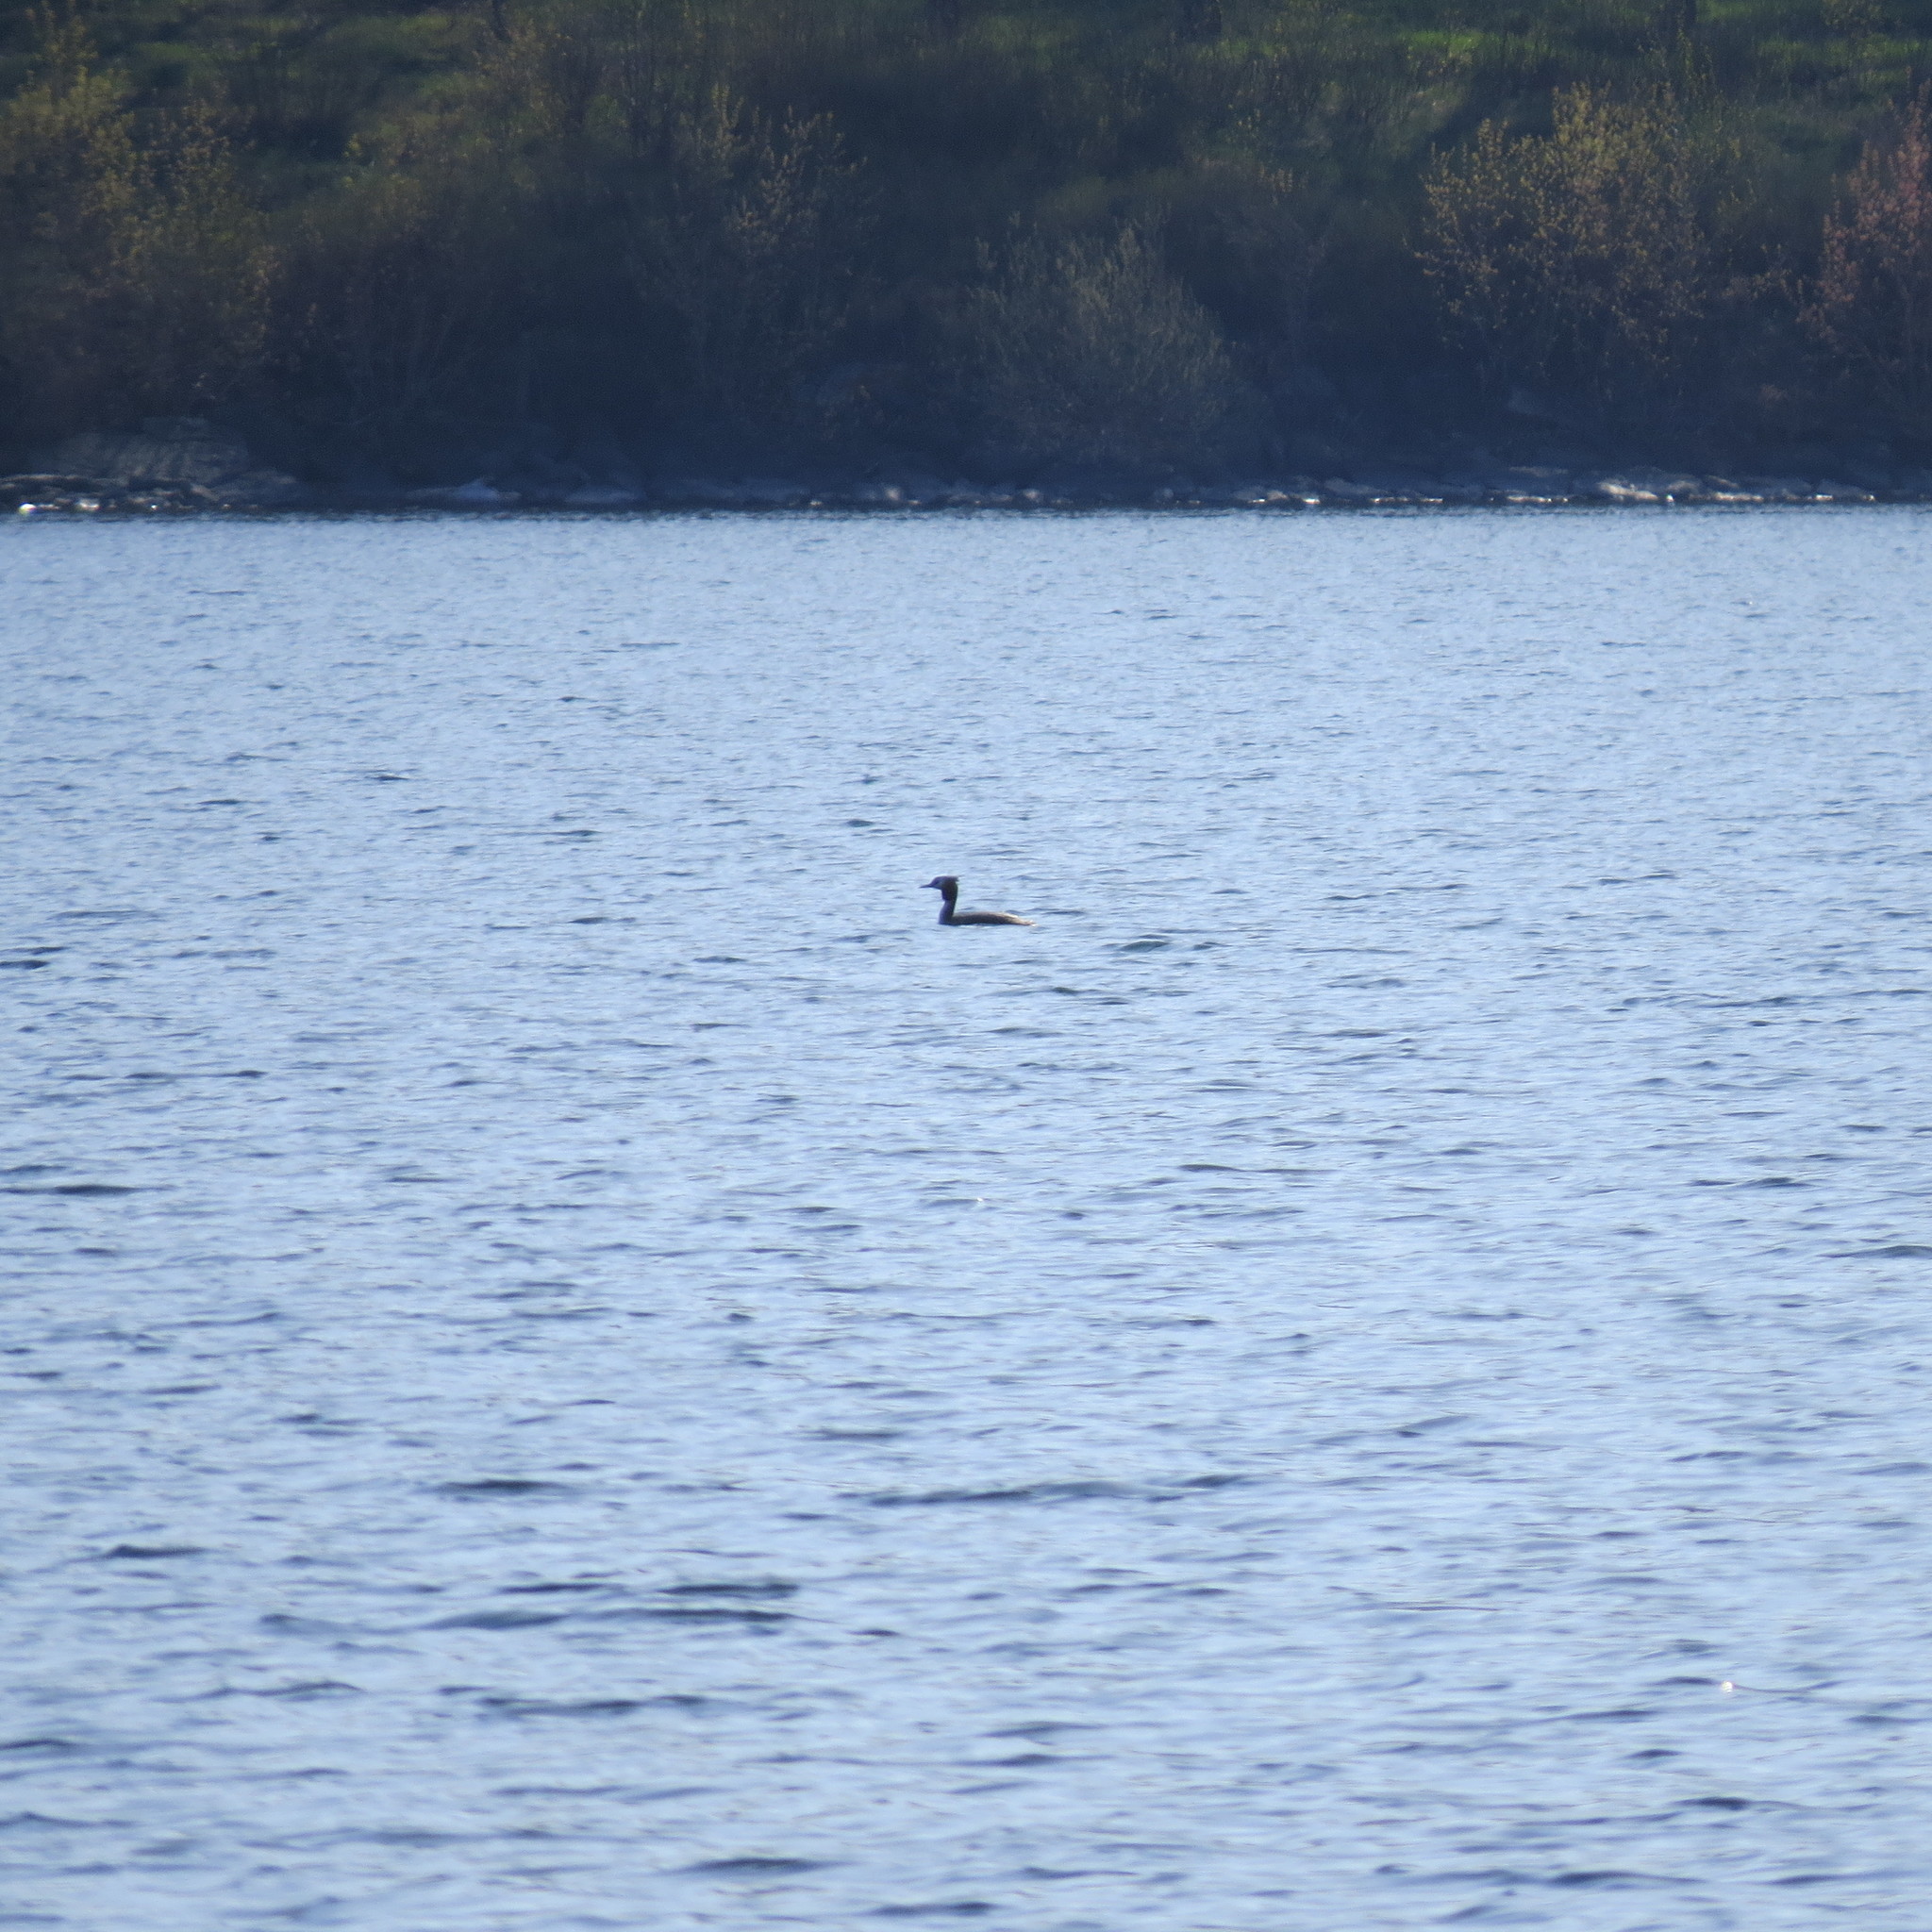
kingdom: Animalia
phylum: Chordata
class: Aves
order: Podicipediformes
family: Podicipedidae
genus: Podiceps
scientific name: Podiceps cristatus
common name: Great crested grebe
